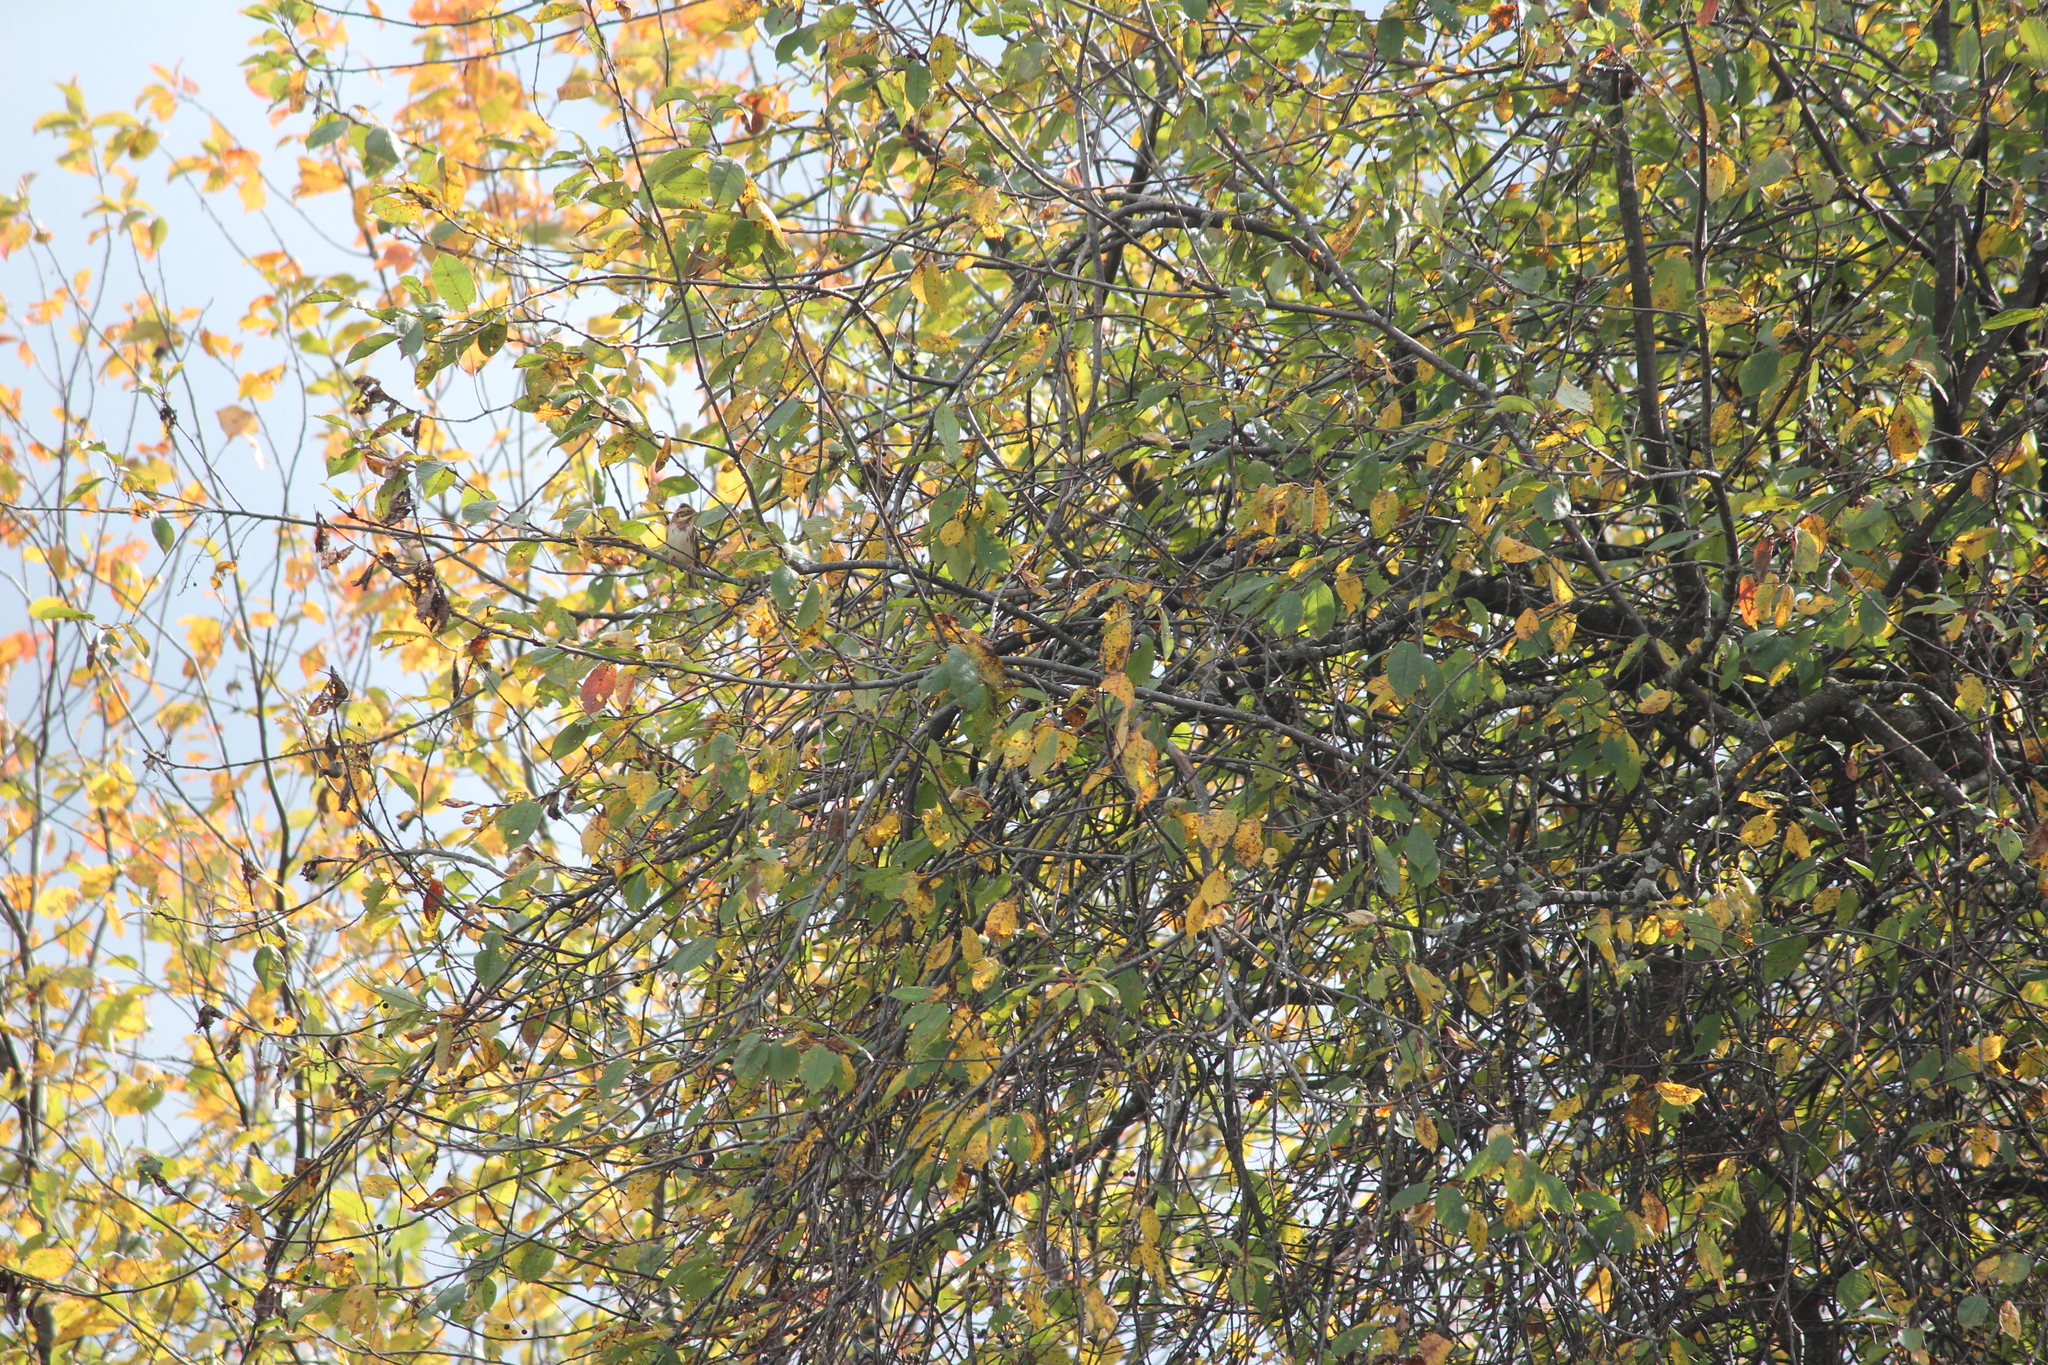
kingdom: Animalia
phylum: Chordata
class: Aves
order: Passeriformes
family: Emberizidae
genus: Emberiza
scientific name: Emberiza rustica
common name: Rustic bunting
